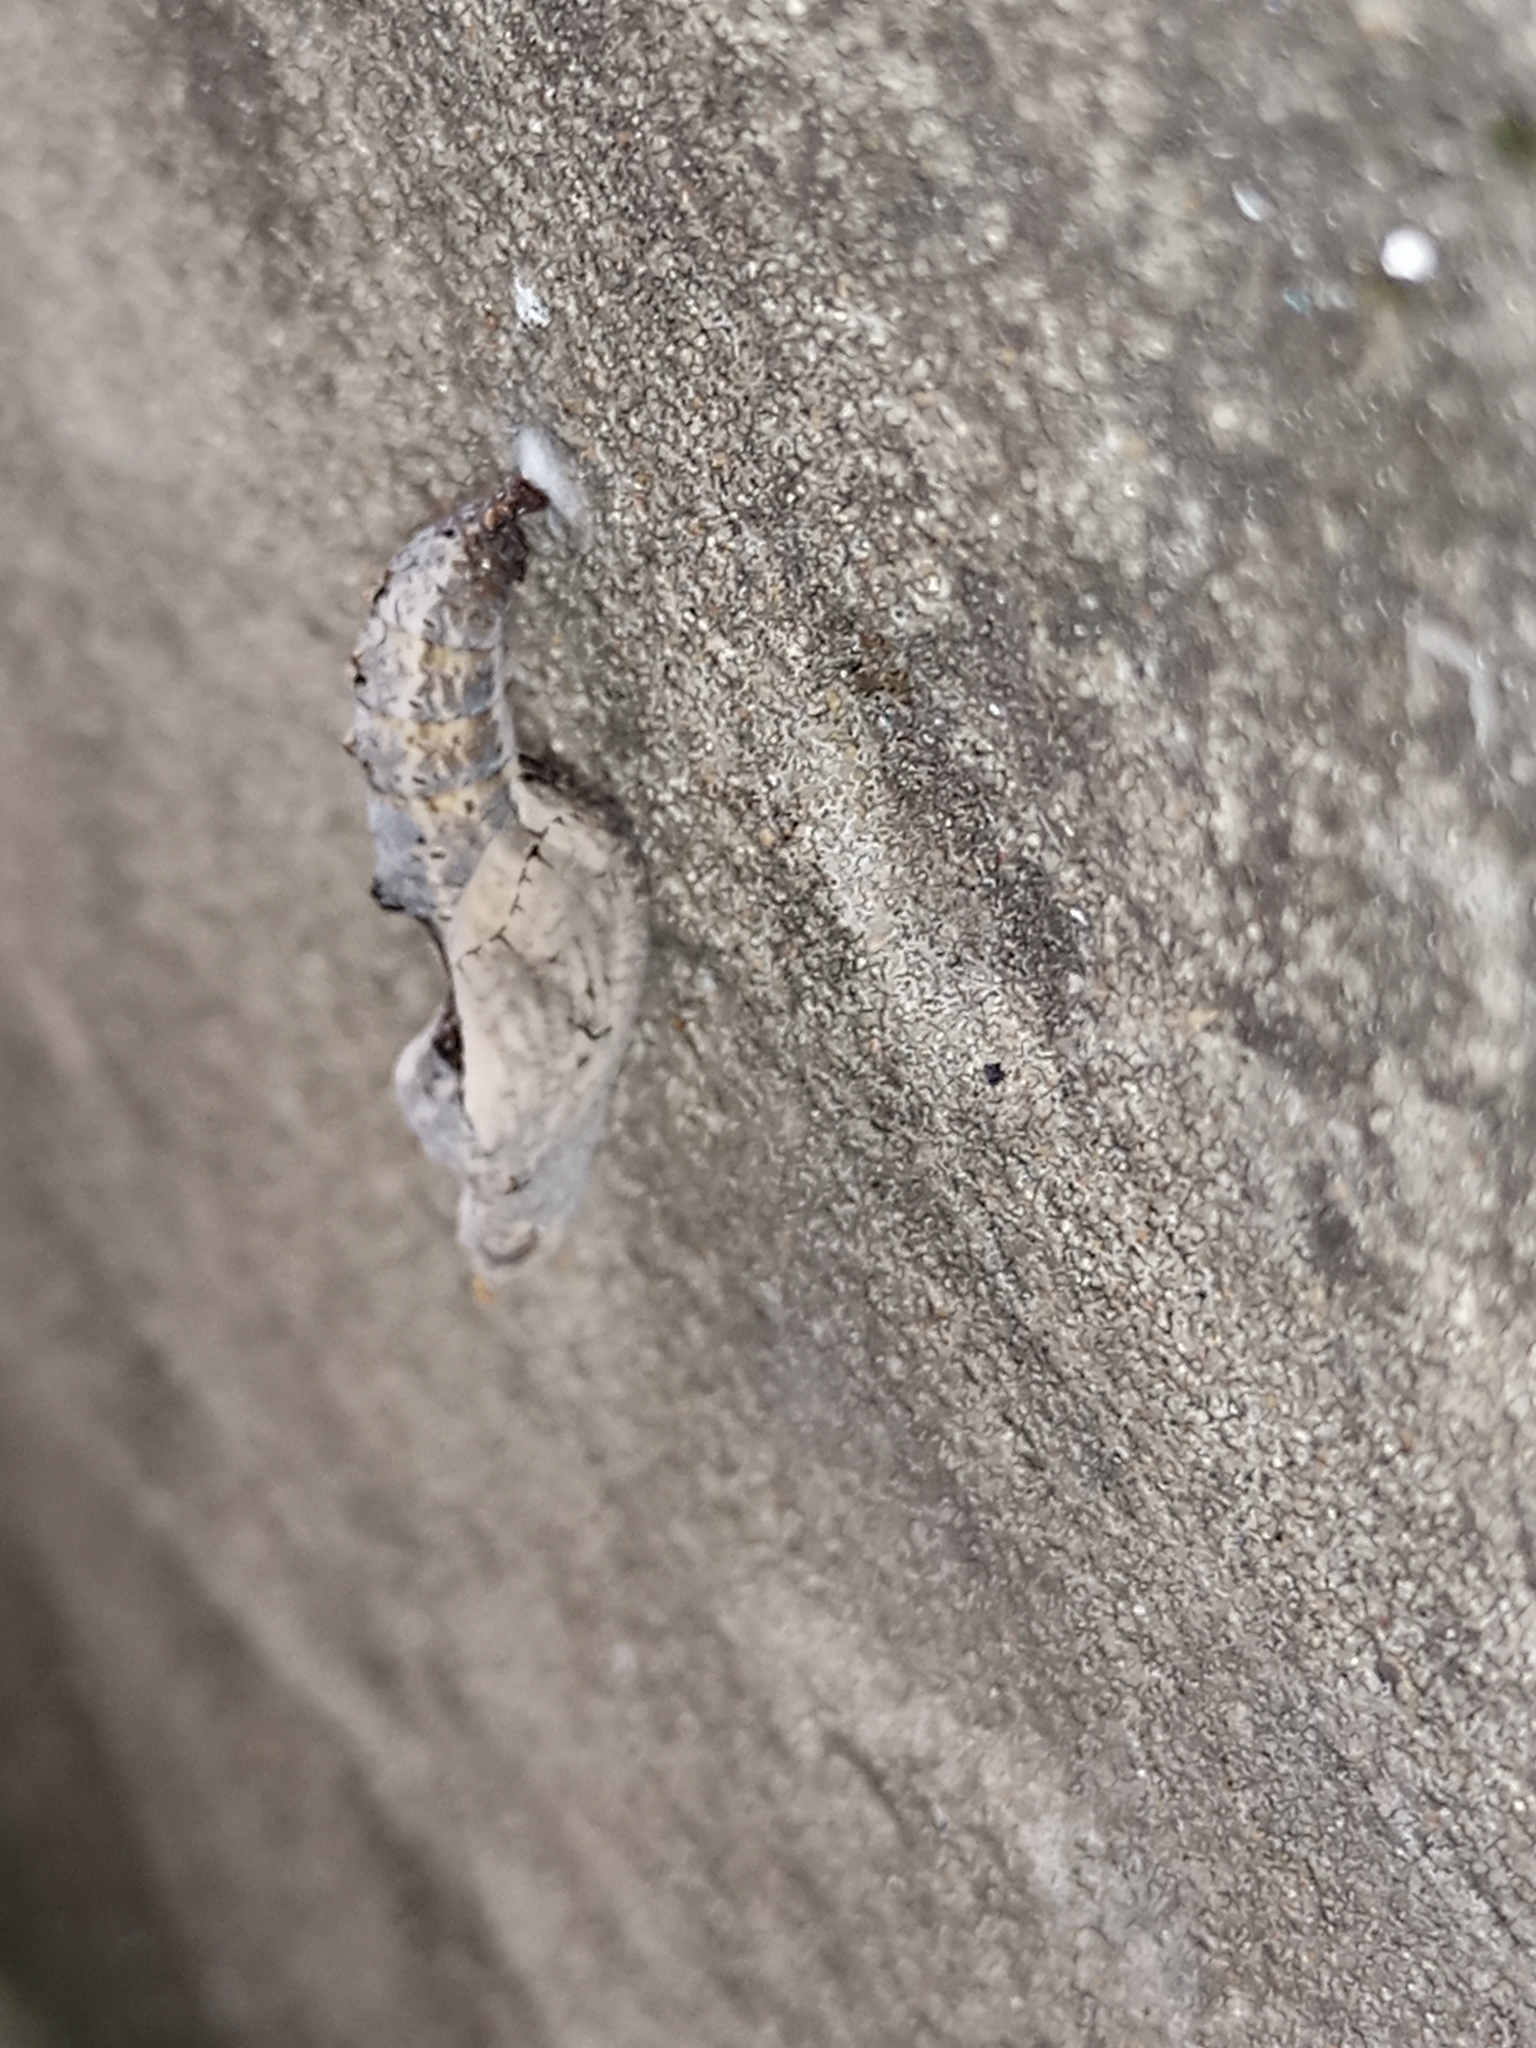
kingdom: Animalia
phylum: Arthropoda
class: Insecta
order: Lepidoptera
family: Nymphalidae
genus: Dione
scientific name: Dione vanillae
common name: Gulf fritillary
